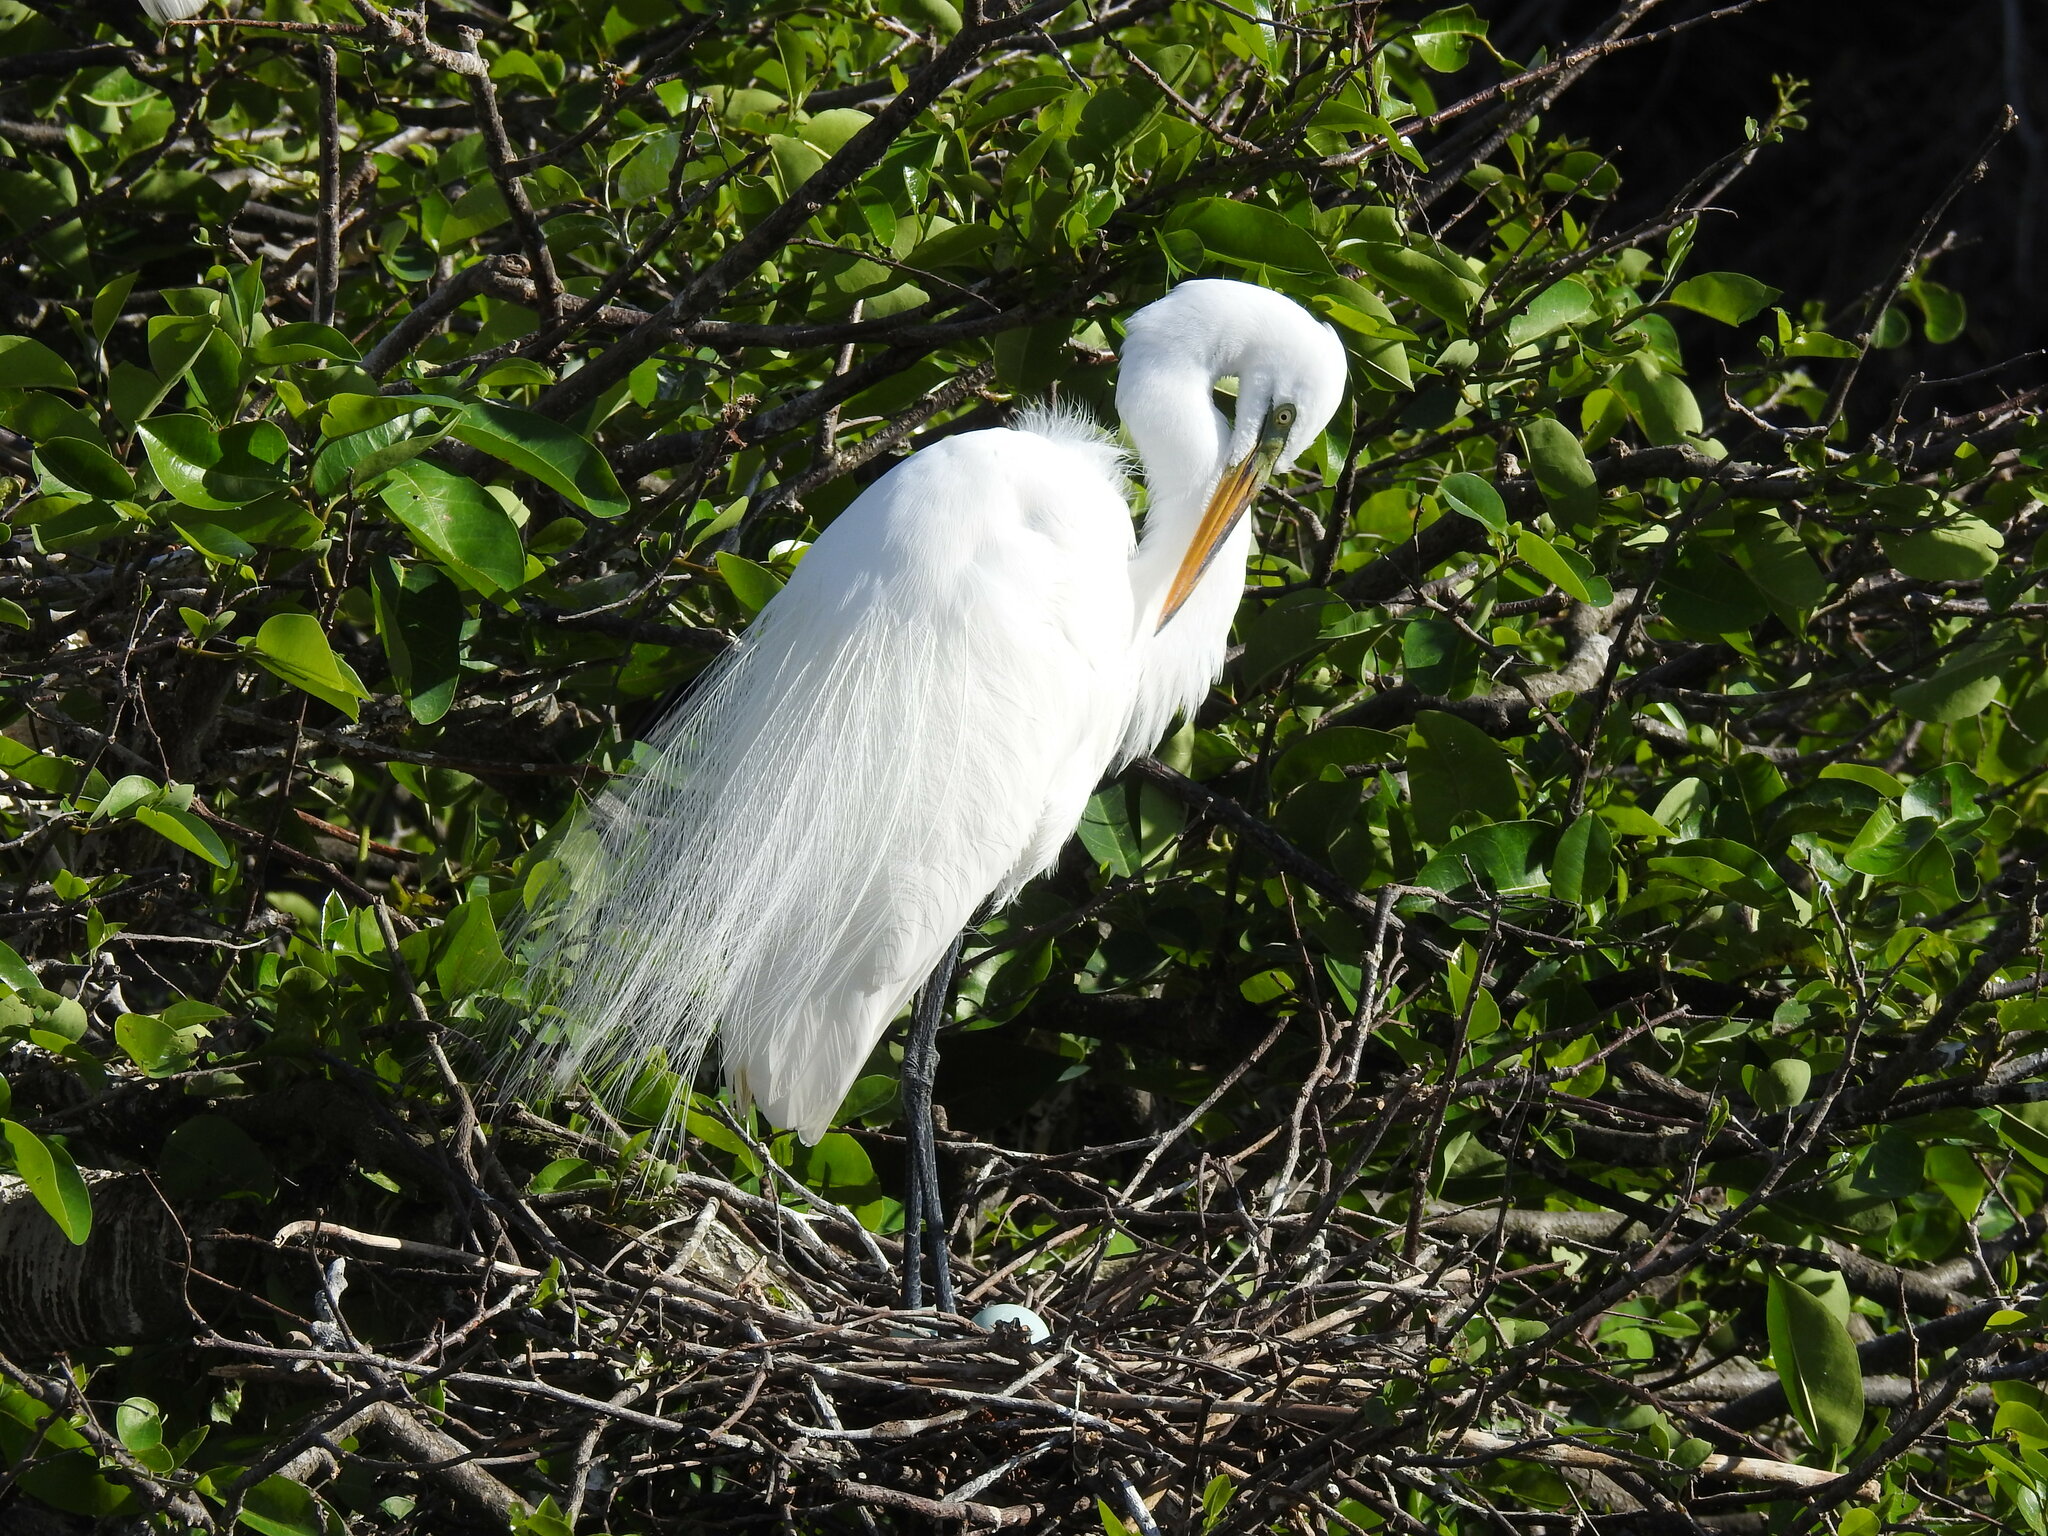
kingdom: Animalia
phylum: Chordata
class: Aves
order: Pelecaniformes
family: Ardeidae
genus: Ardea
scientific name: Ardea alba
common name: Great egret
